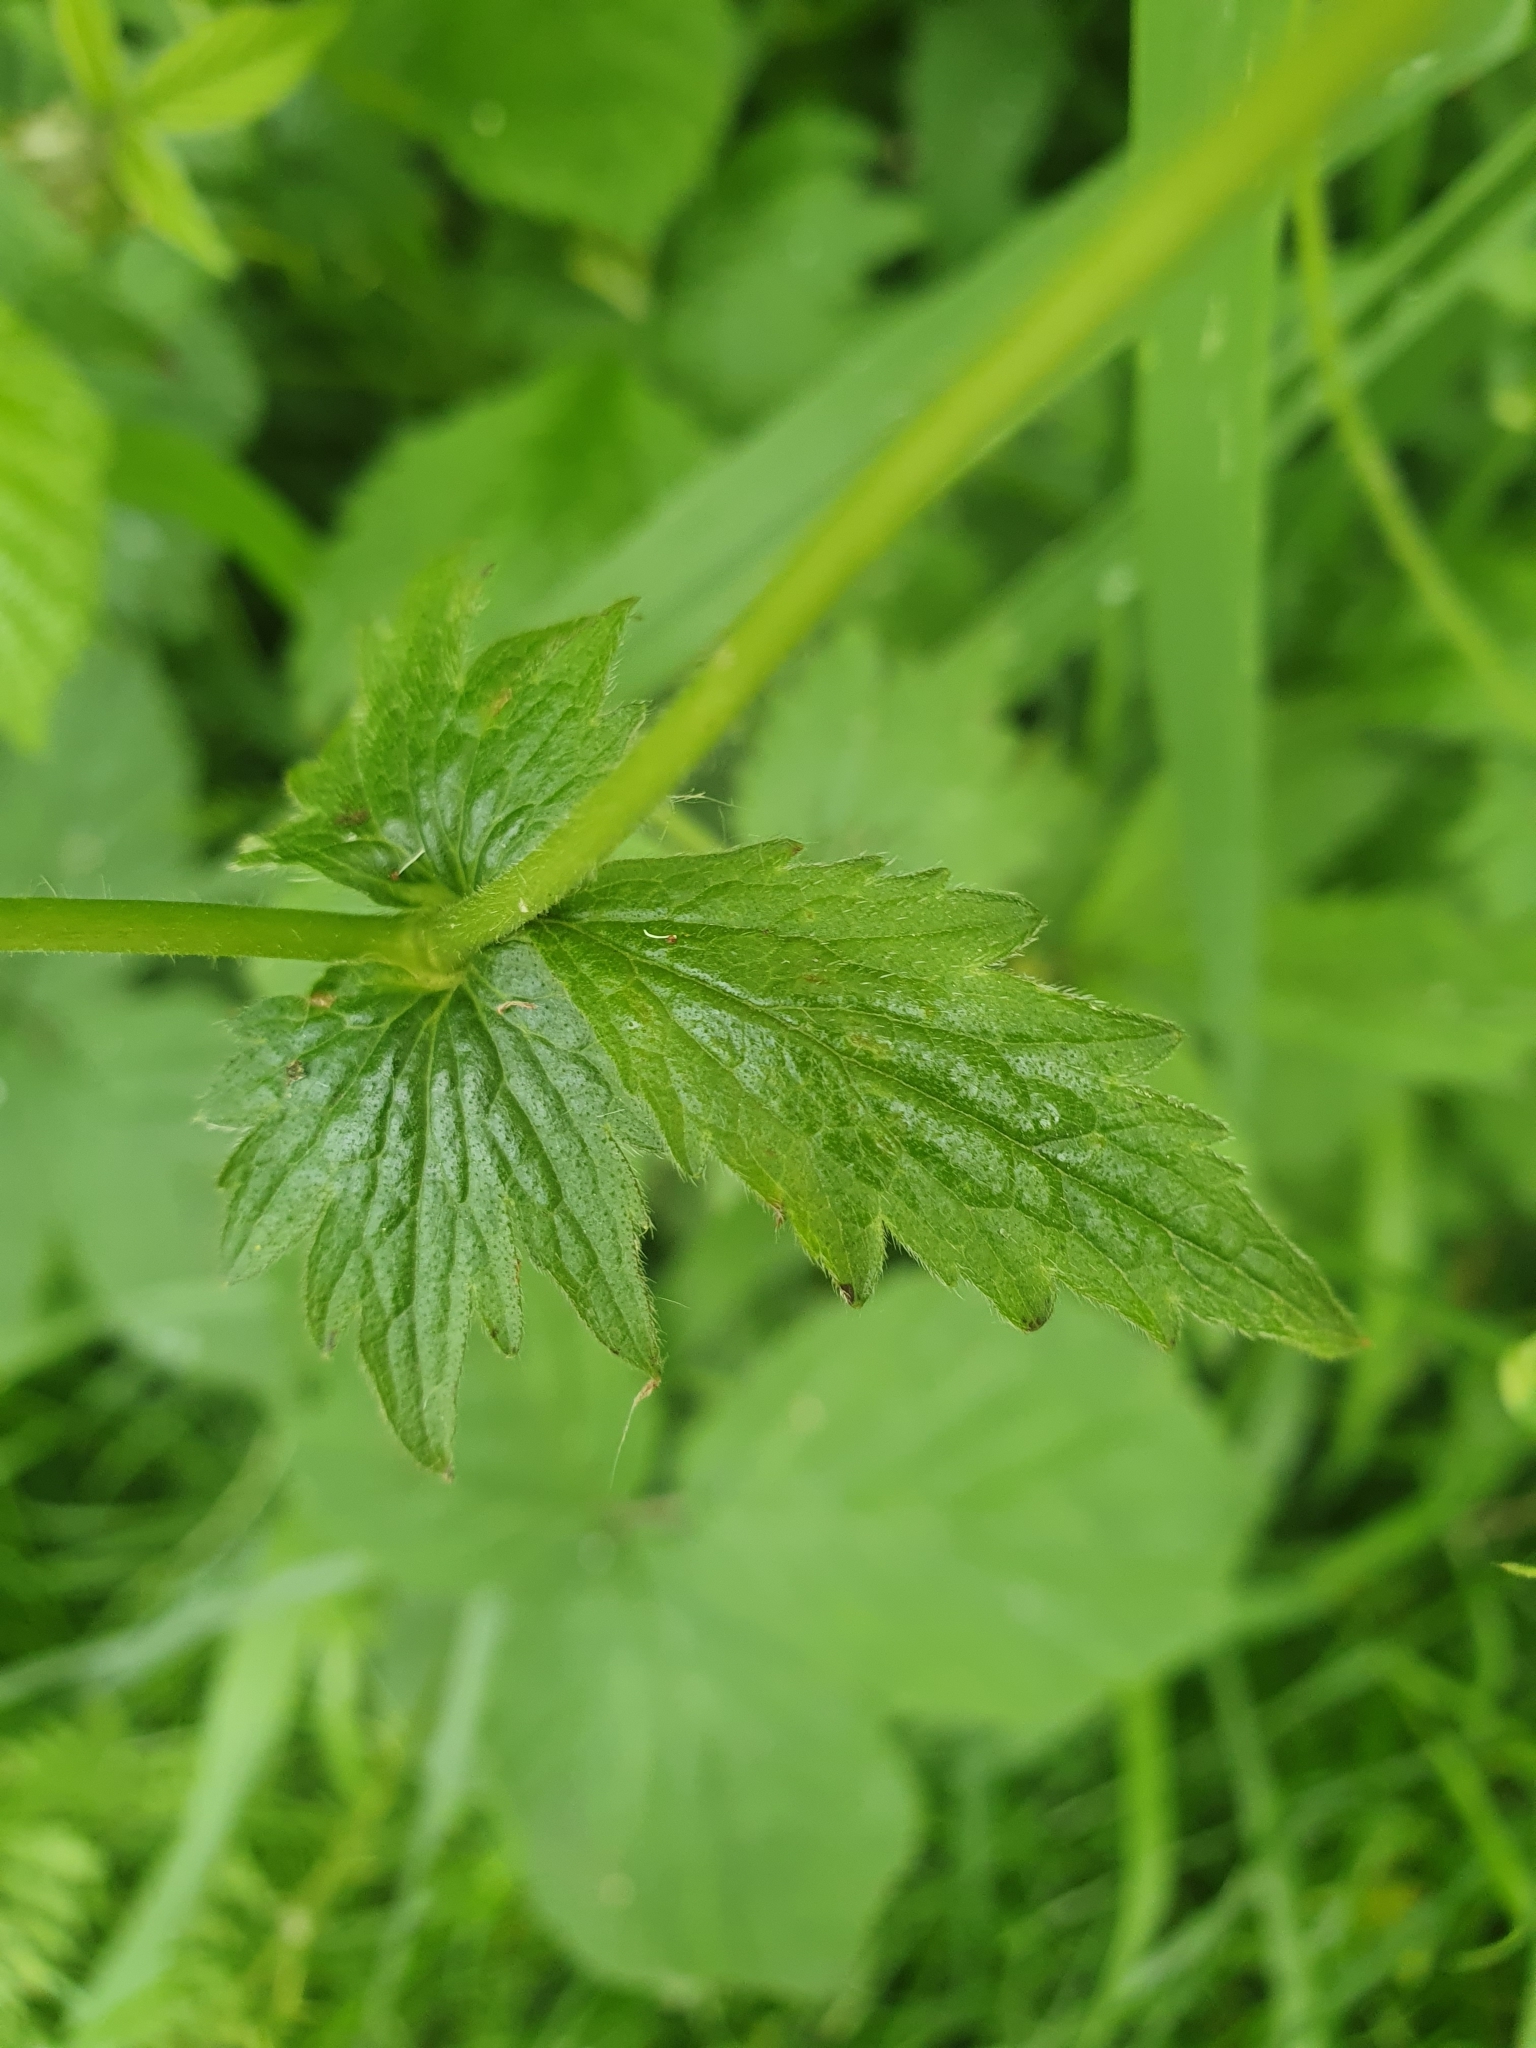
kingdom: Plantae
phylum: Tracheophyta
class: Magnoliopsida
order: Rosales
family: Rosaceae
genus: Geum
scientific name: Geum urbanum
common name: Wood avens
